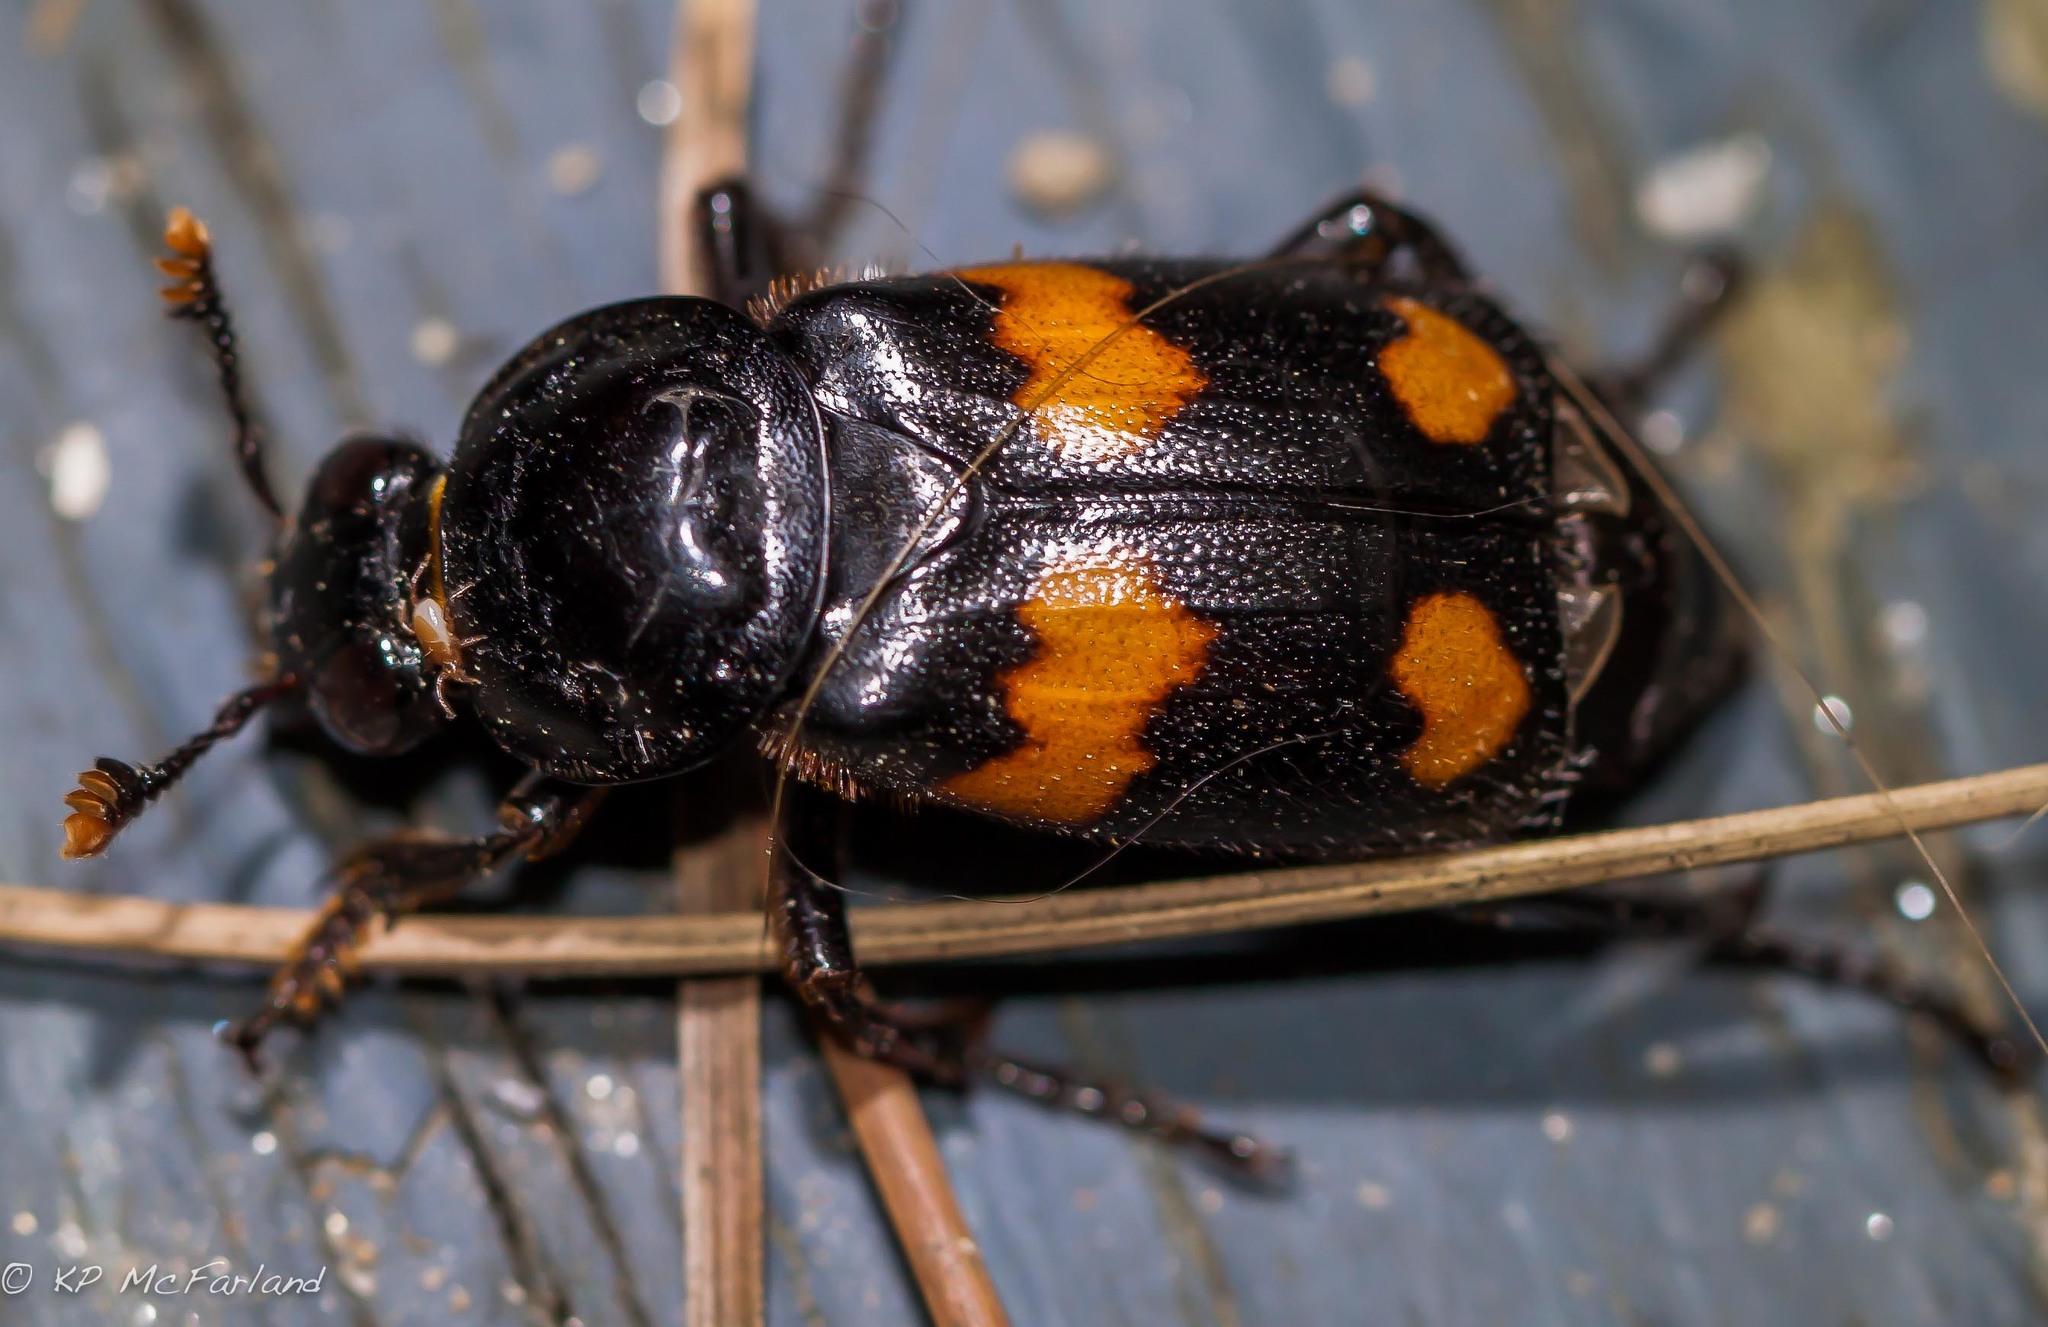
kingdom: Animalia
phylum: Arthropoda
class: Insecta
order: Coleoptera
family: Staphylinidae
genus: Nicrophorus
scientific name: Nicrophorus orbicollis
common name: Roundneck sexton beetle
